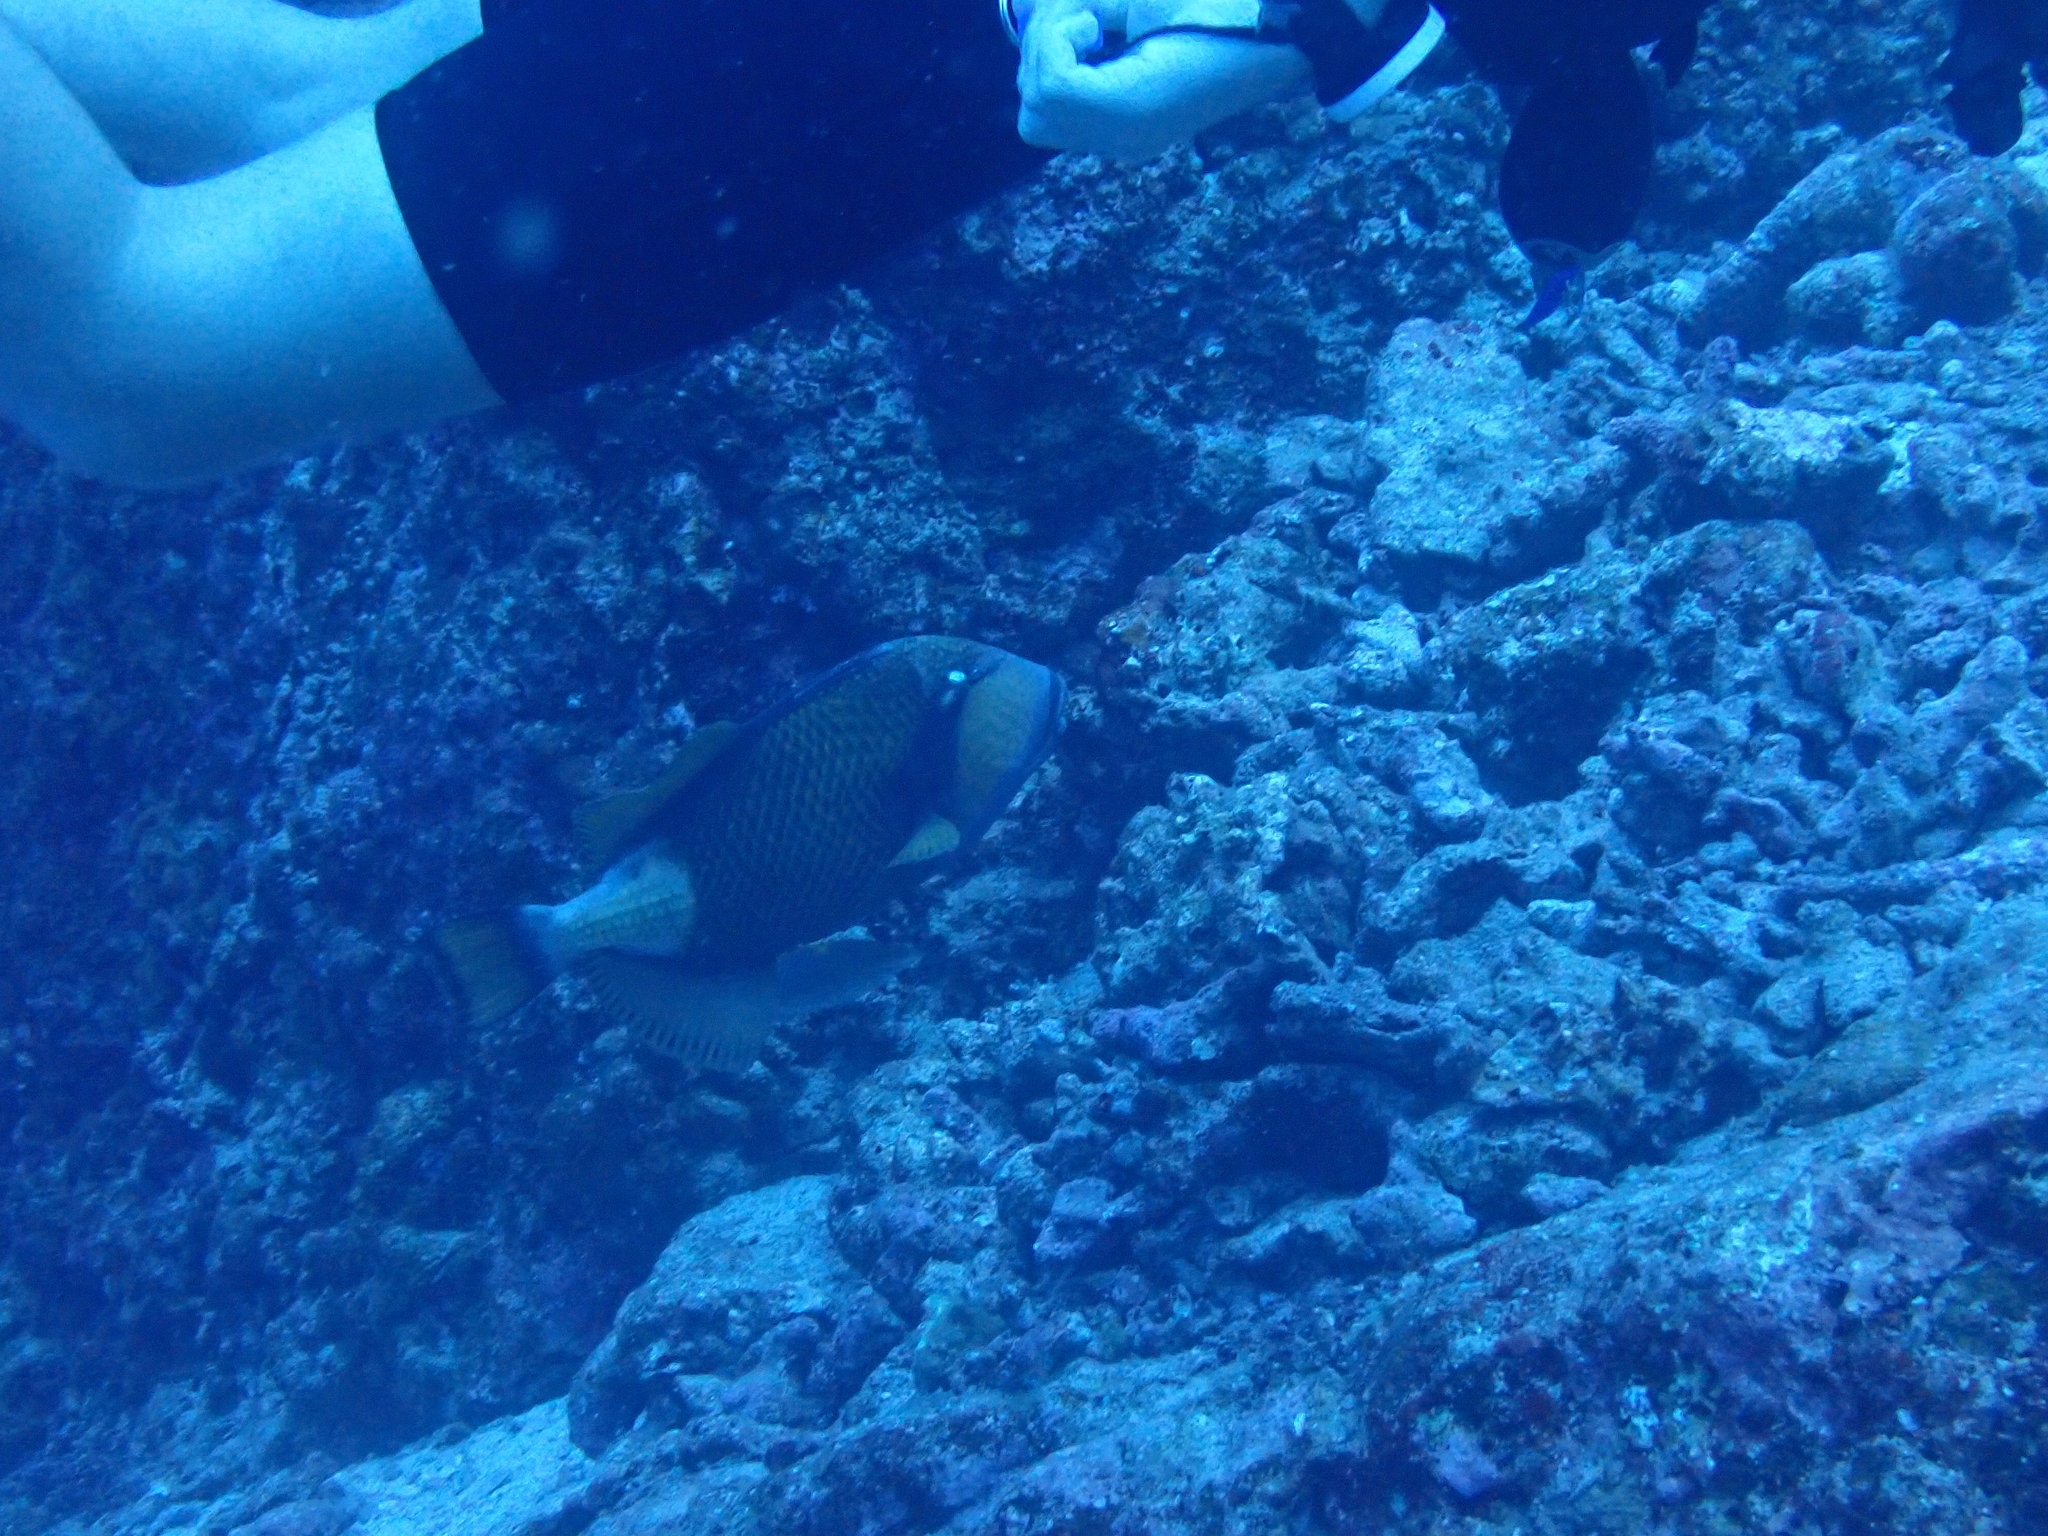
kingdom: Animalia
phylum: Chordata
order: Tetraodontiformes
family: Balistidae
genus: Balistoides
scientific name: Balistoides viridescens
